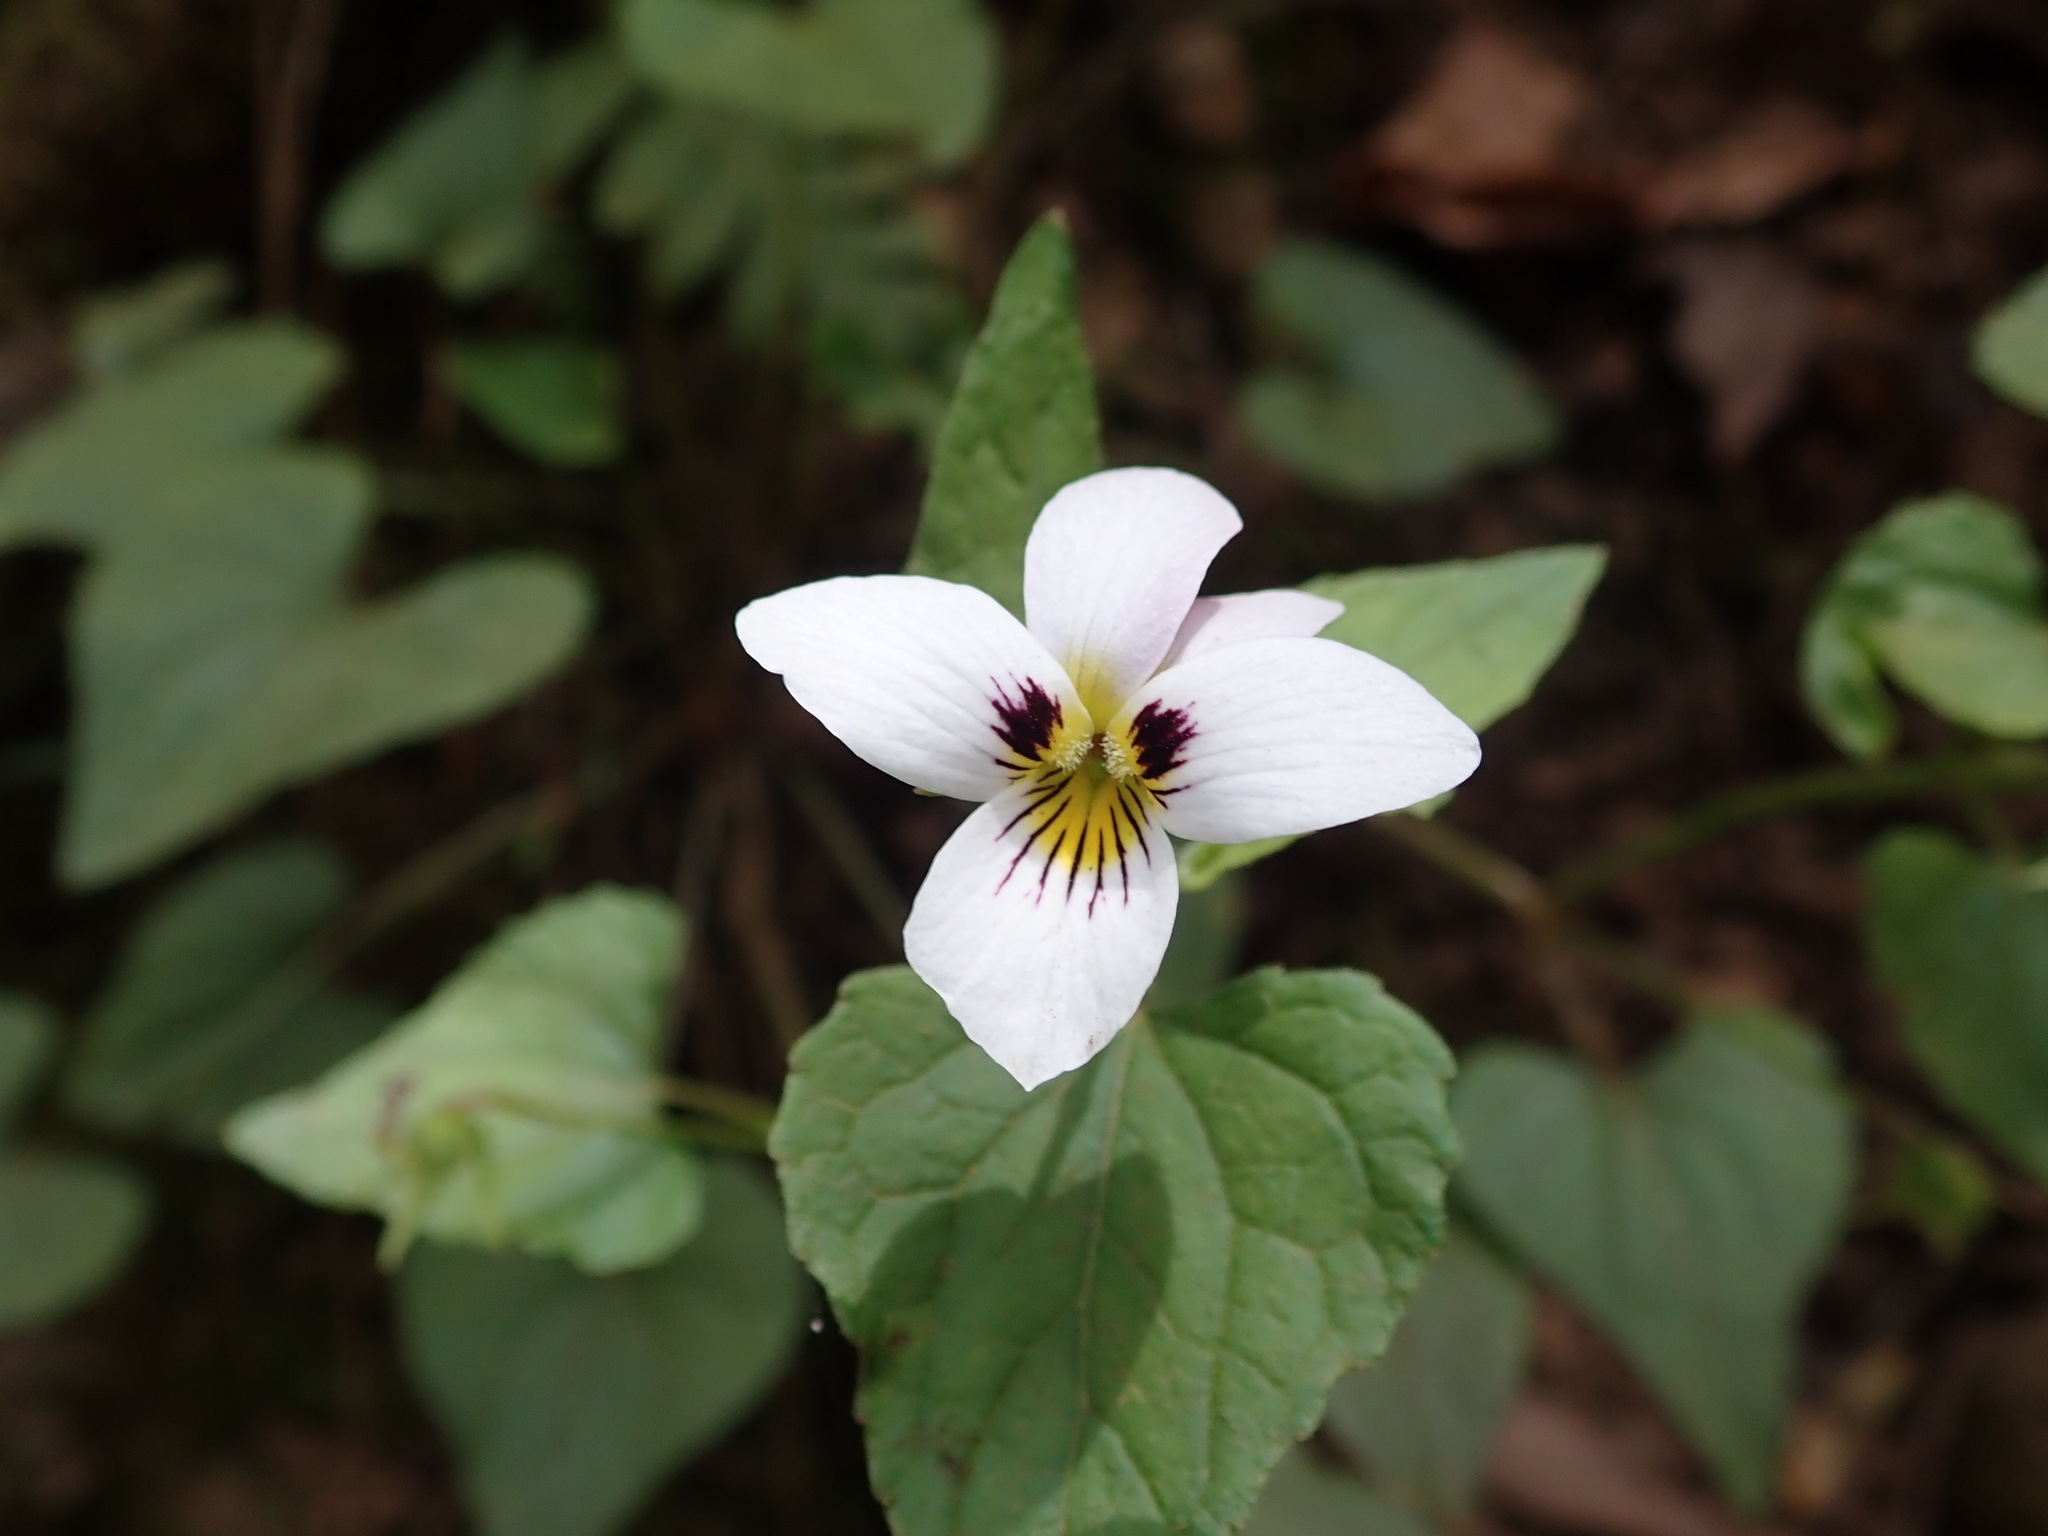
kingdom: Plantae
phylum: Tracheophyta
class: Magnoliopsida
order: Malpighiales
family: Violaceae
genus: Viola
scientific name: Viola ocellata
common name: Western heart's ease
